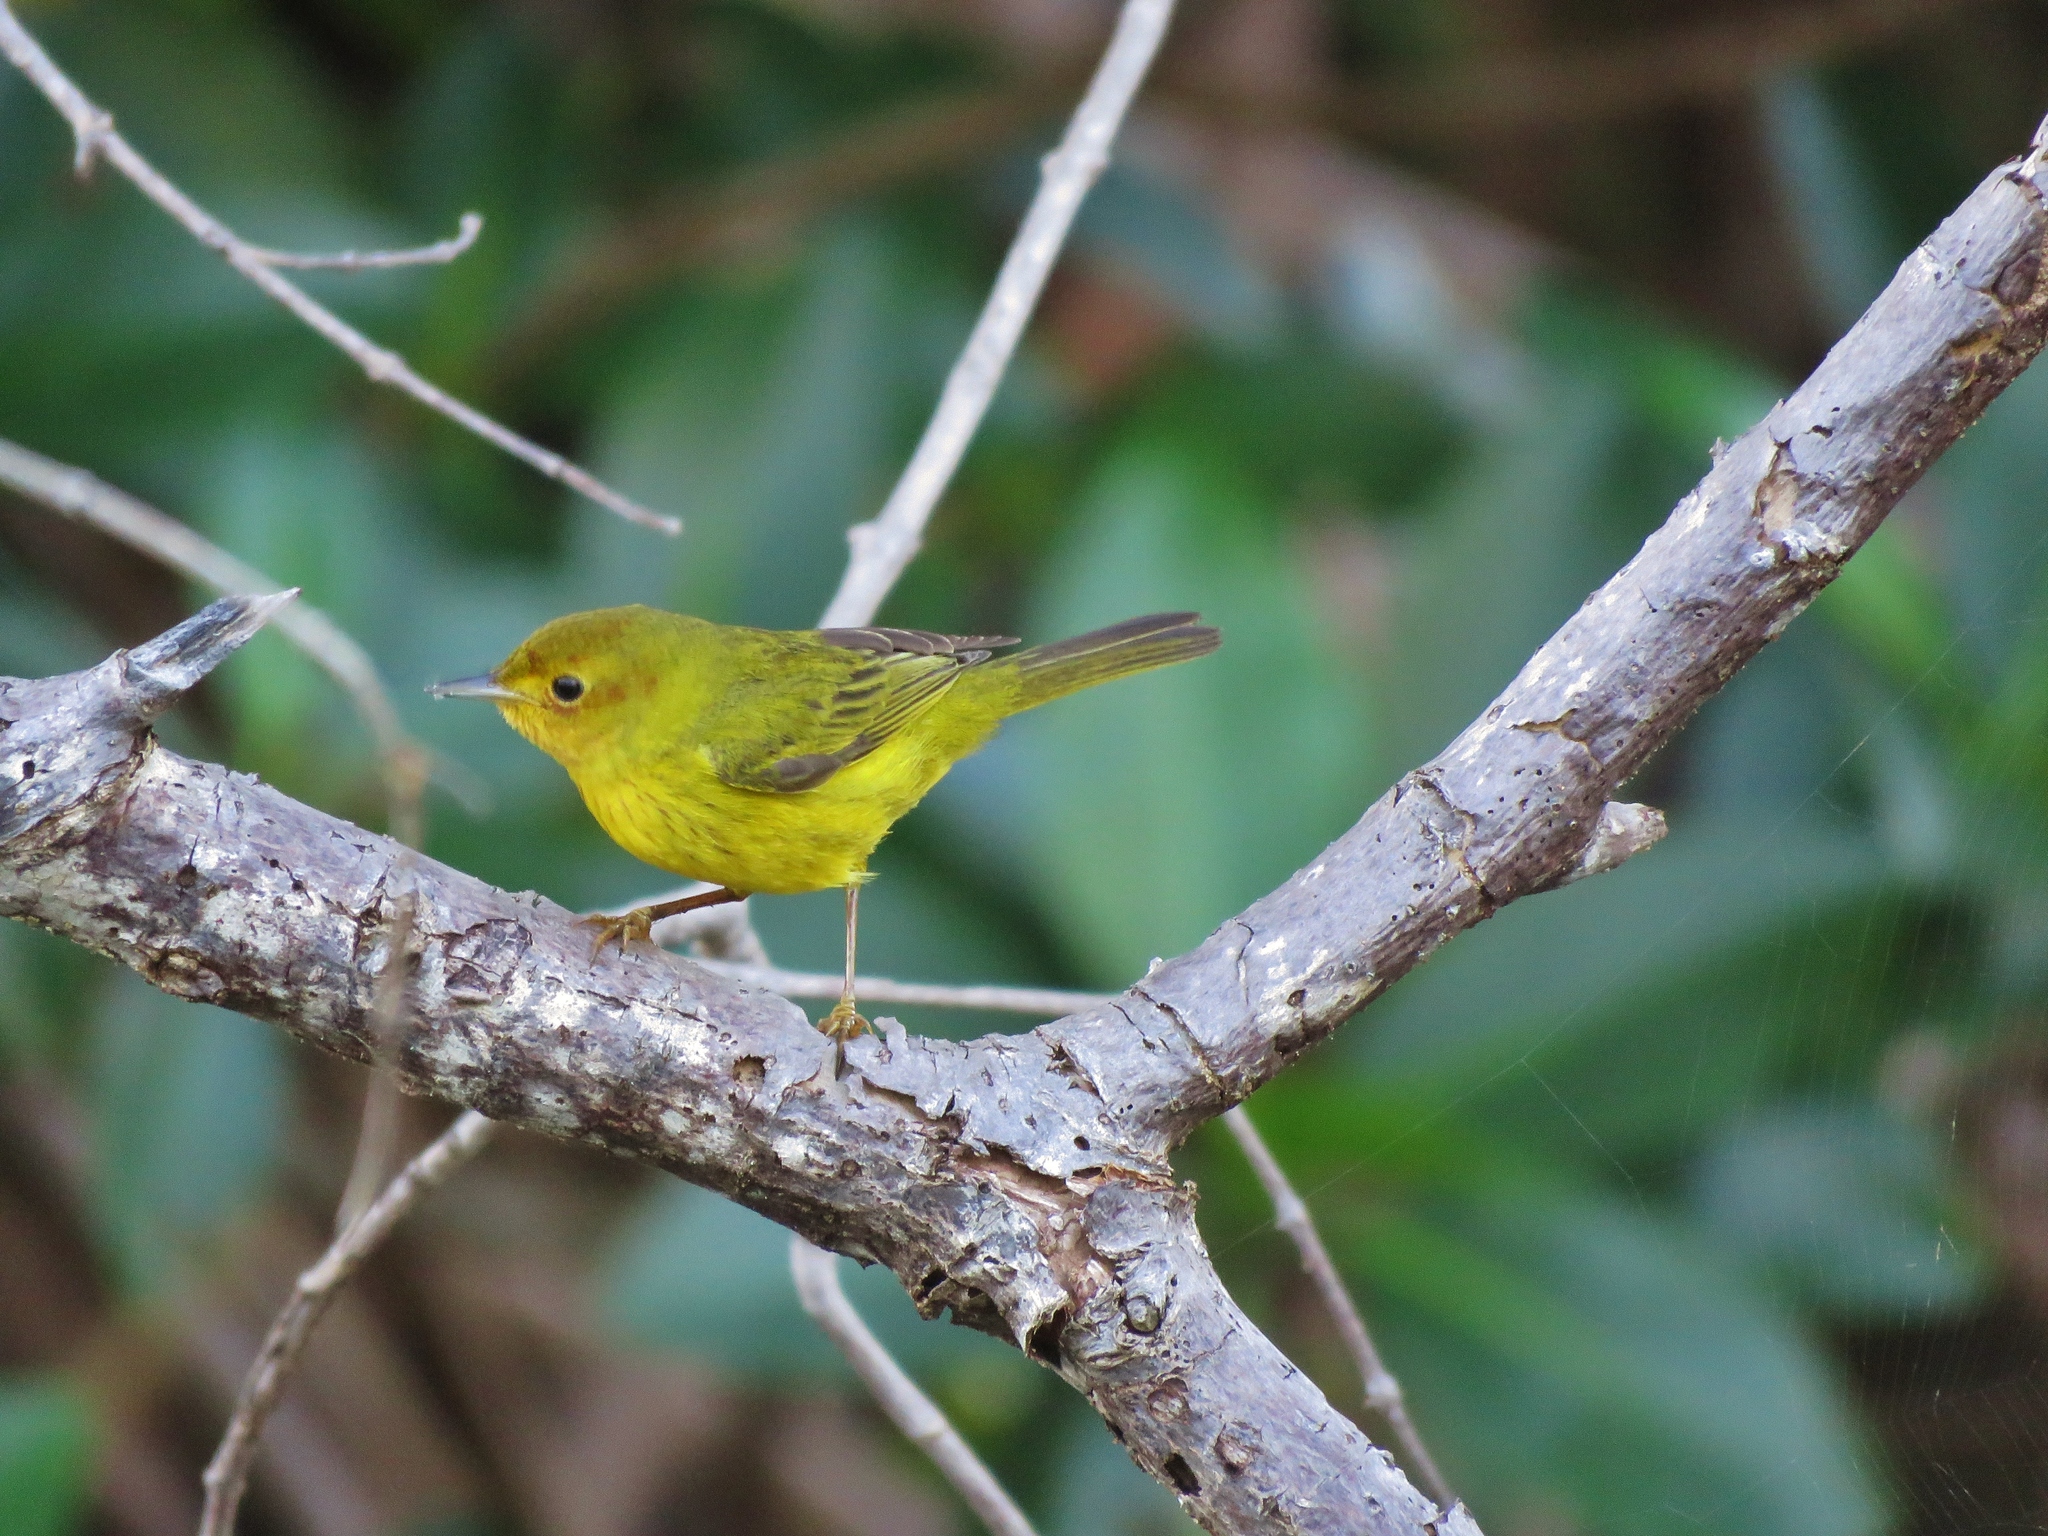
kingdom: Animalia
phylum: Chordata
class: Aves
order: Passeriformes
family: Parulidae
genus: Setophaga
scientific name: Setophaga petechia
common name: Yellow warbler
